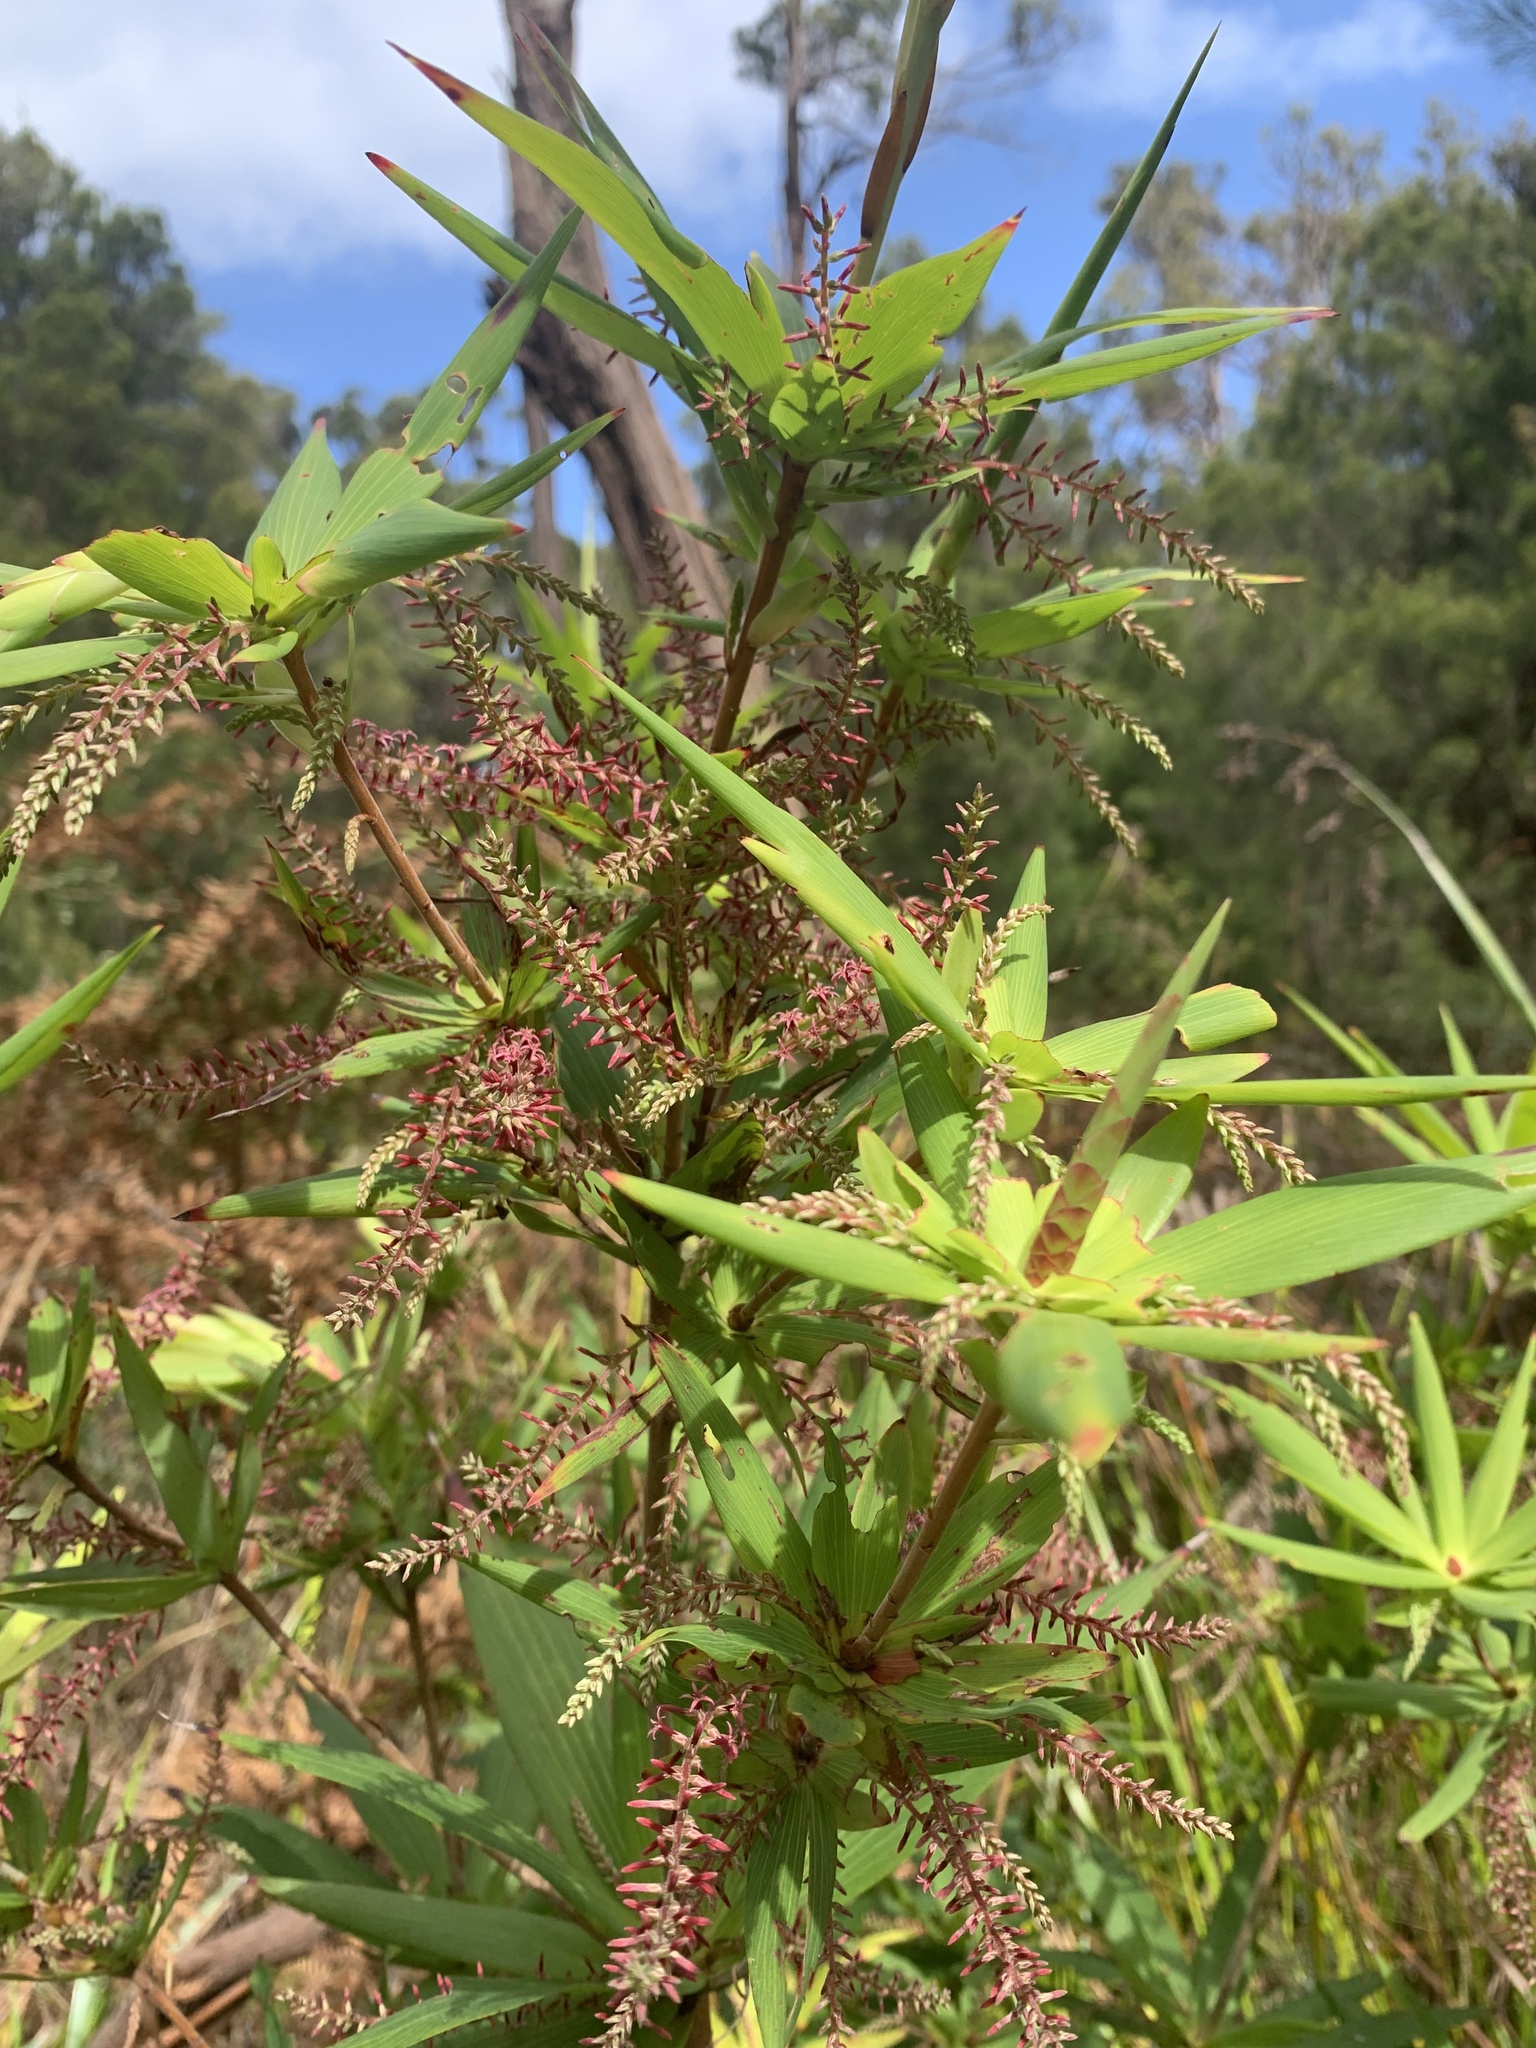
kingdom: Plantae
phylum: Tracheophyta
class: Magnoliopsida
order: Ericales
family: Ericaceae
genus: Leucopogon
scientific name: Leucopogon verticillatus
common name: Tasselshrub
